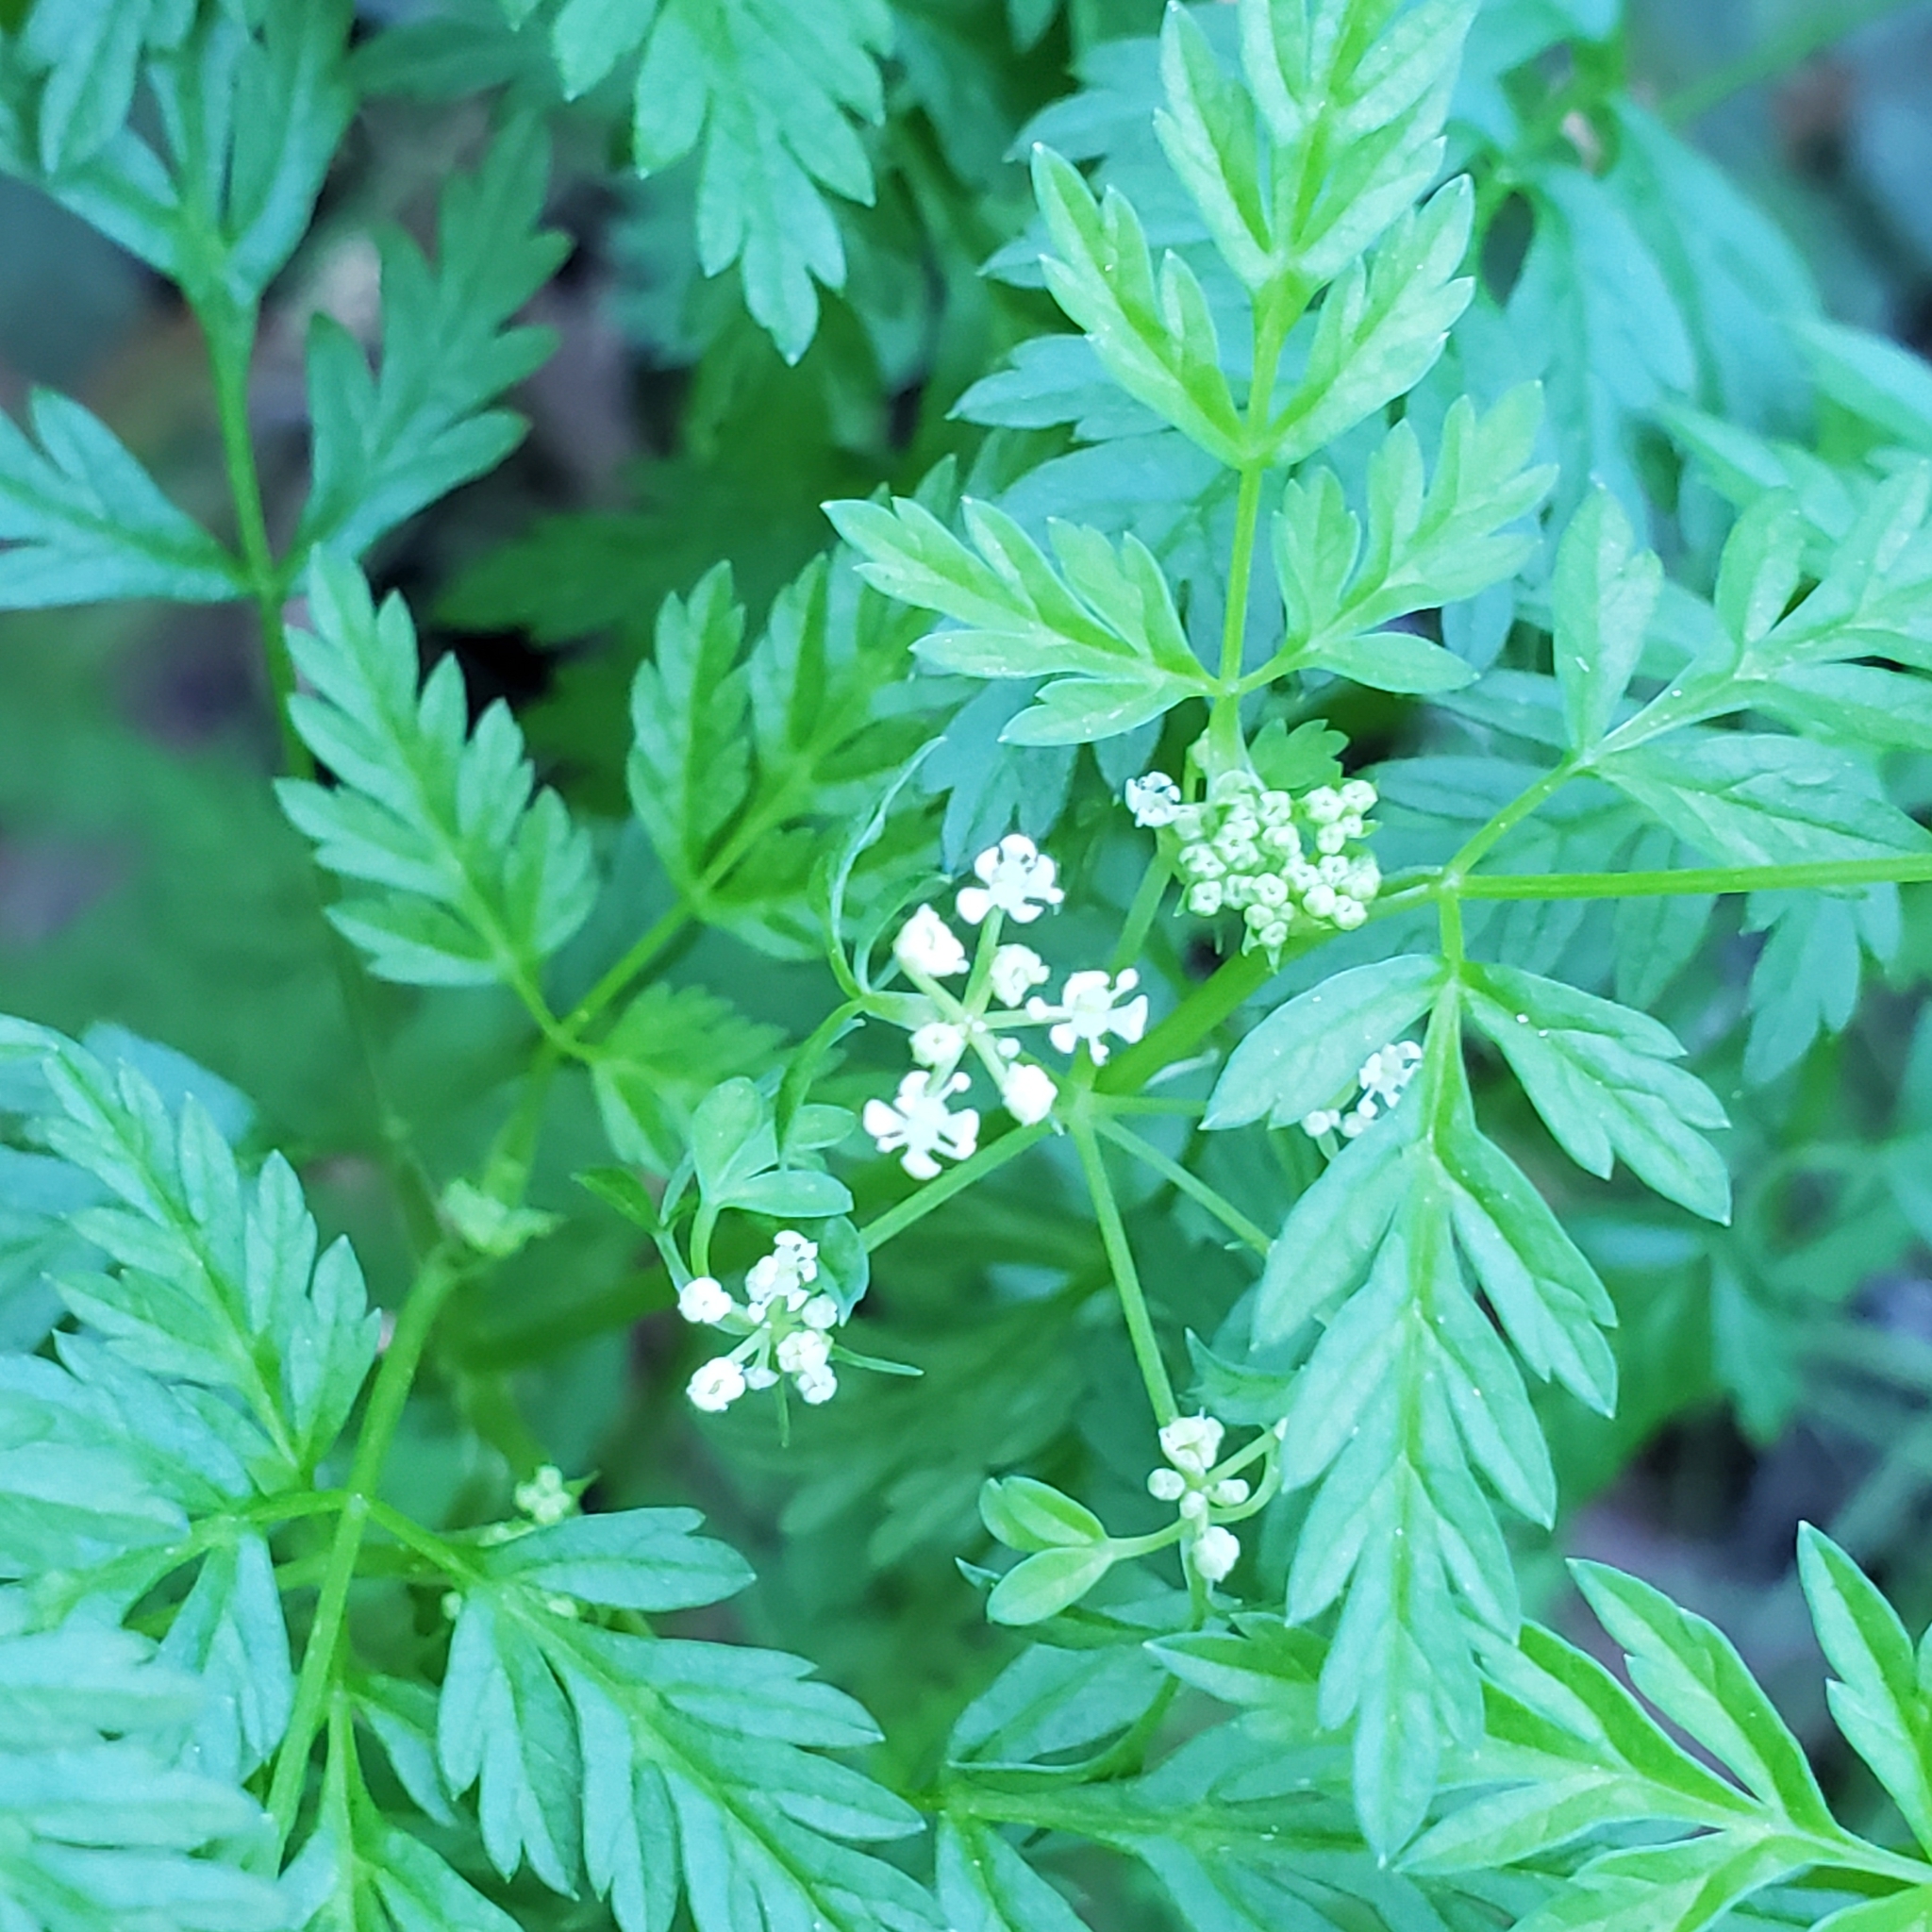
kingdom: Plantae
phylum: Tracheophyta
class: Magnoliopsida
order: Apiales
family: Apiaceae
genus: Conium
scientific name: Conium maculatum
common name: Hemlock
